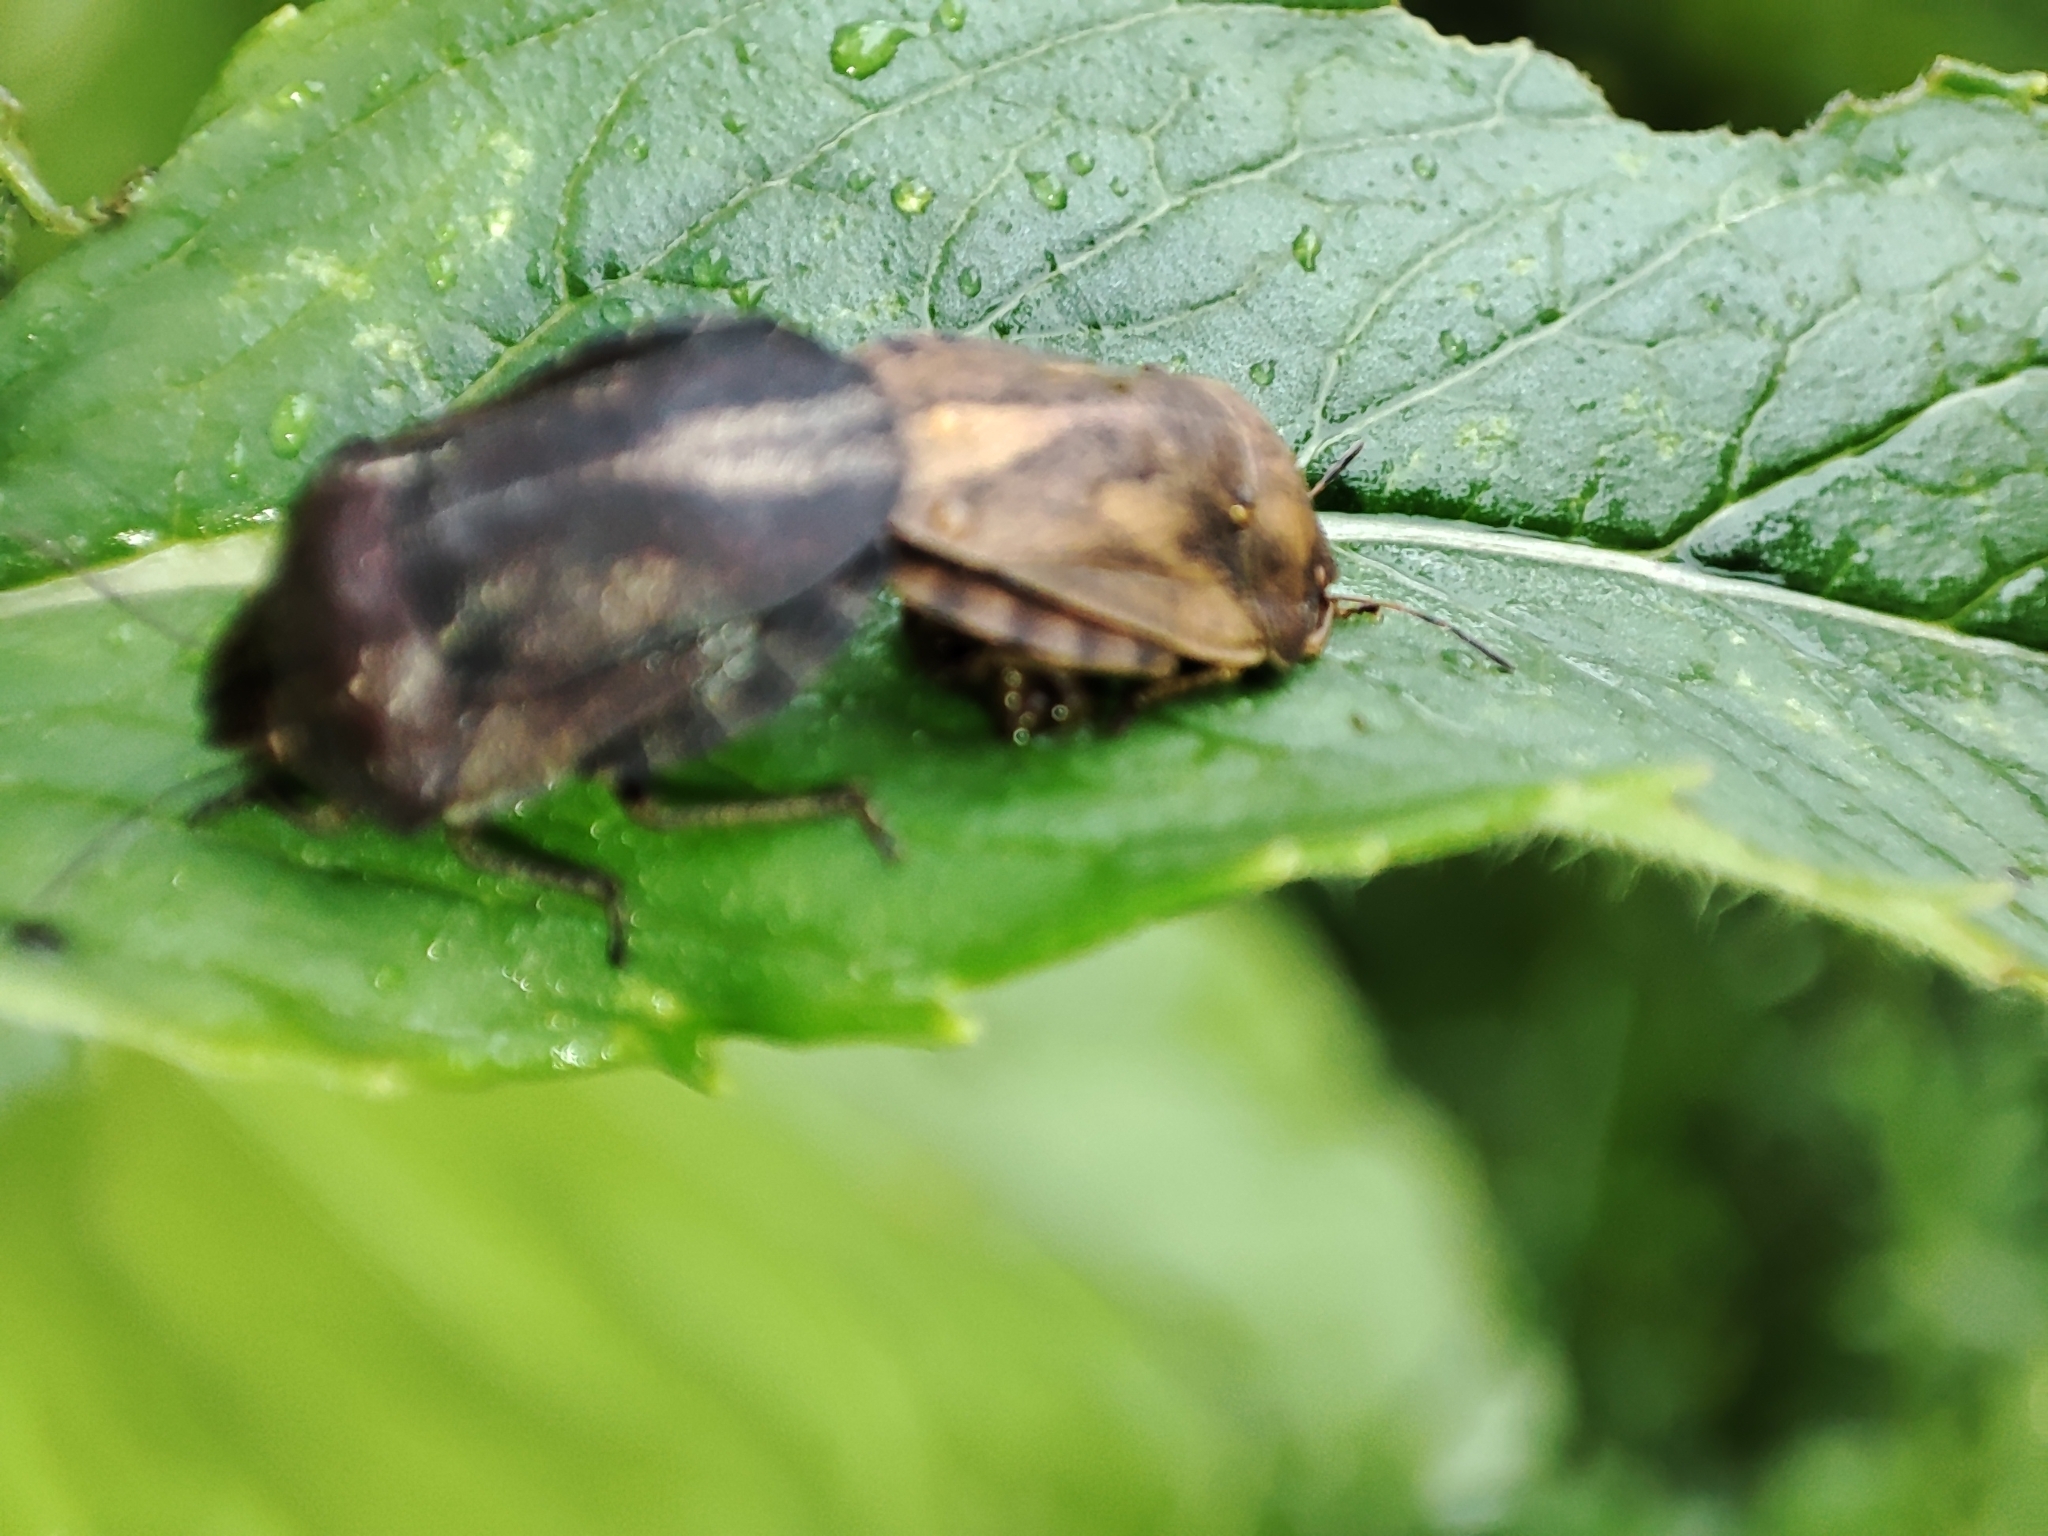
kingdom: Animalia
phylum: Arthropoda
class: Insecta
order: Hemiptera
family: Scutelleridae
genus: Eurygaster
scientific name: Eurygaster testudinaria
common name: Tortoise bug
